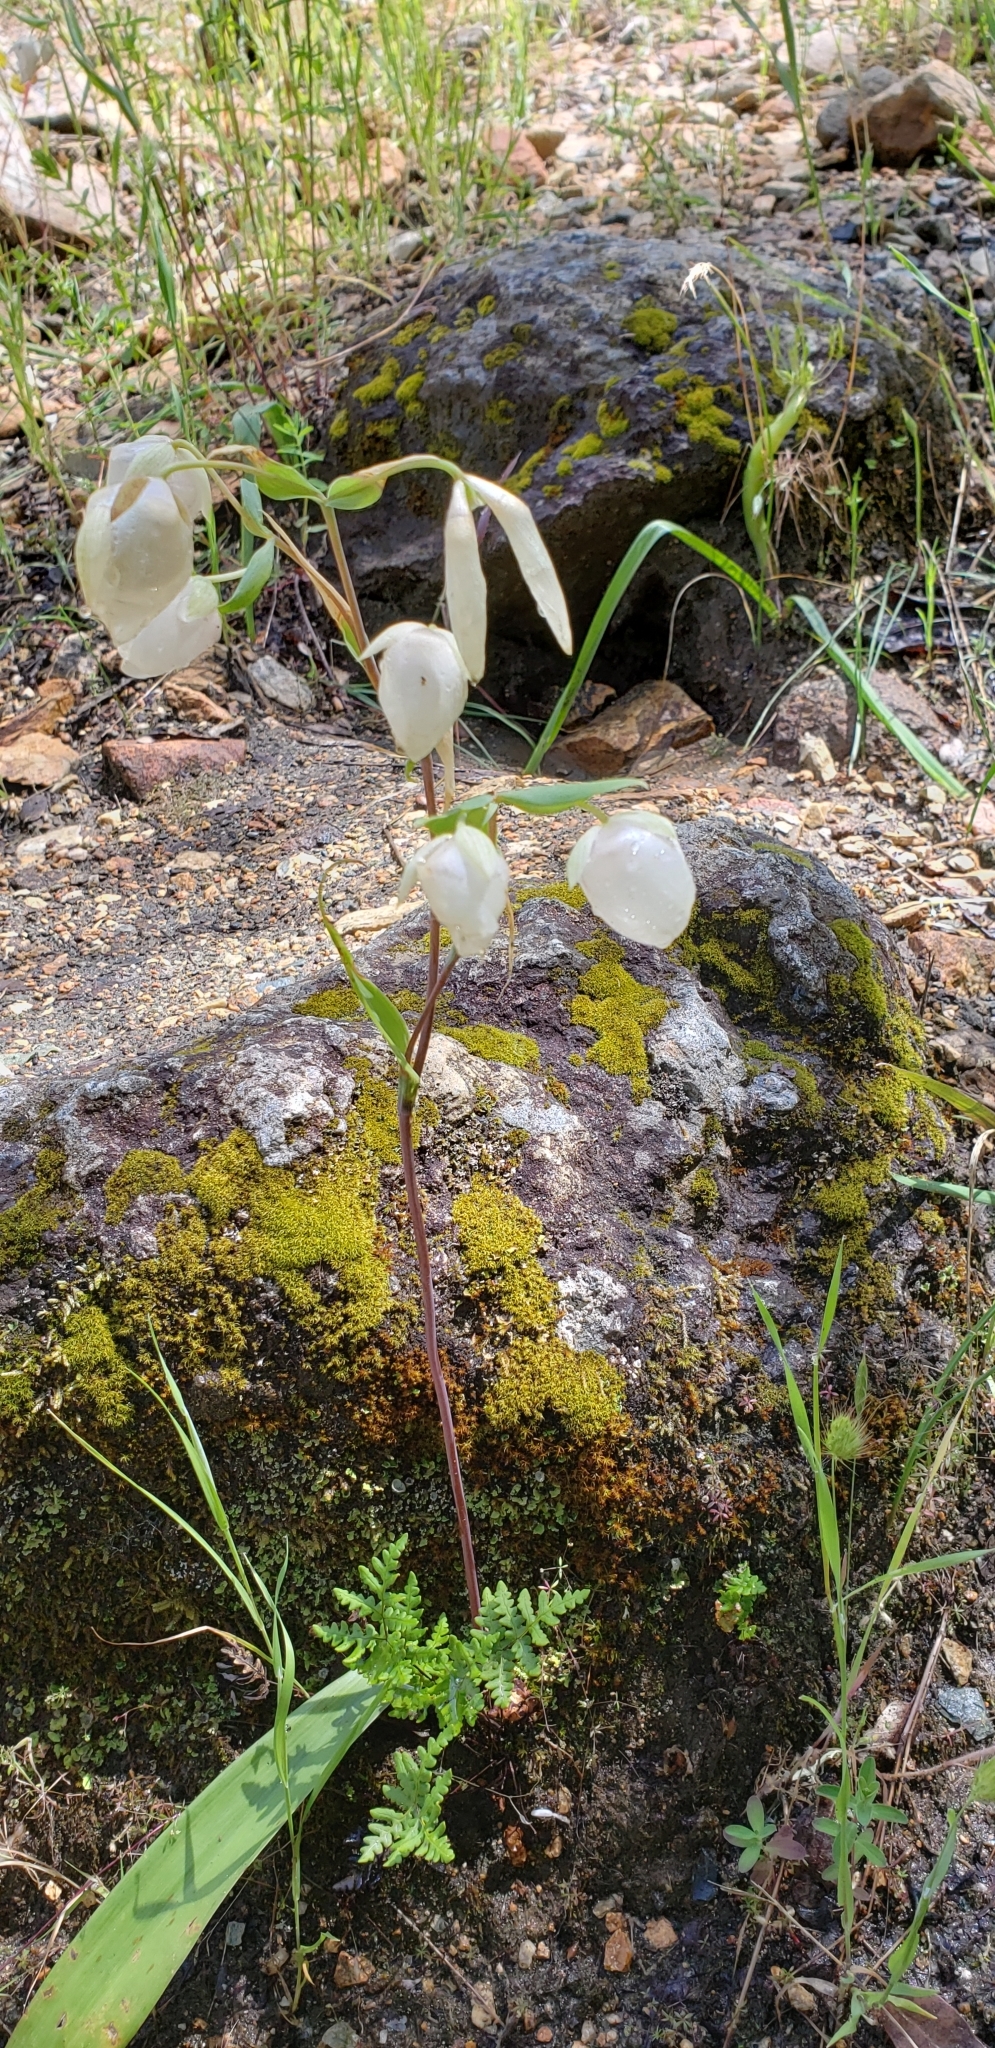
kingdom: Plantae
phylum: Tracheophyta
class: Liliopsida
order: Liliales
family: Liliaceae
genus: Calochortus
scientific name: Calochortus albus
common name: Fairy-lantern
